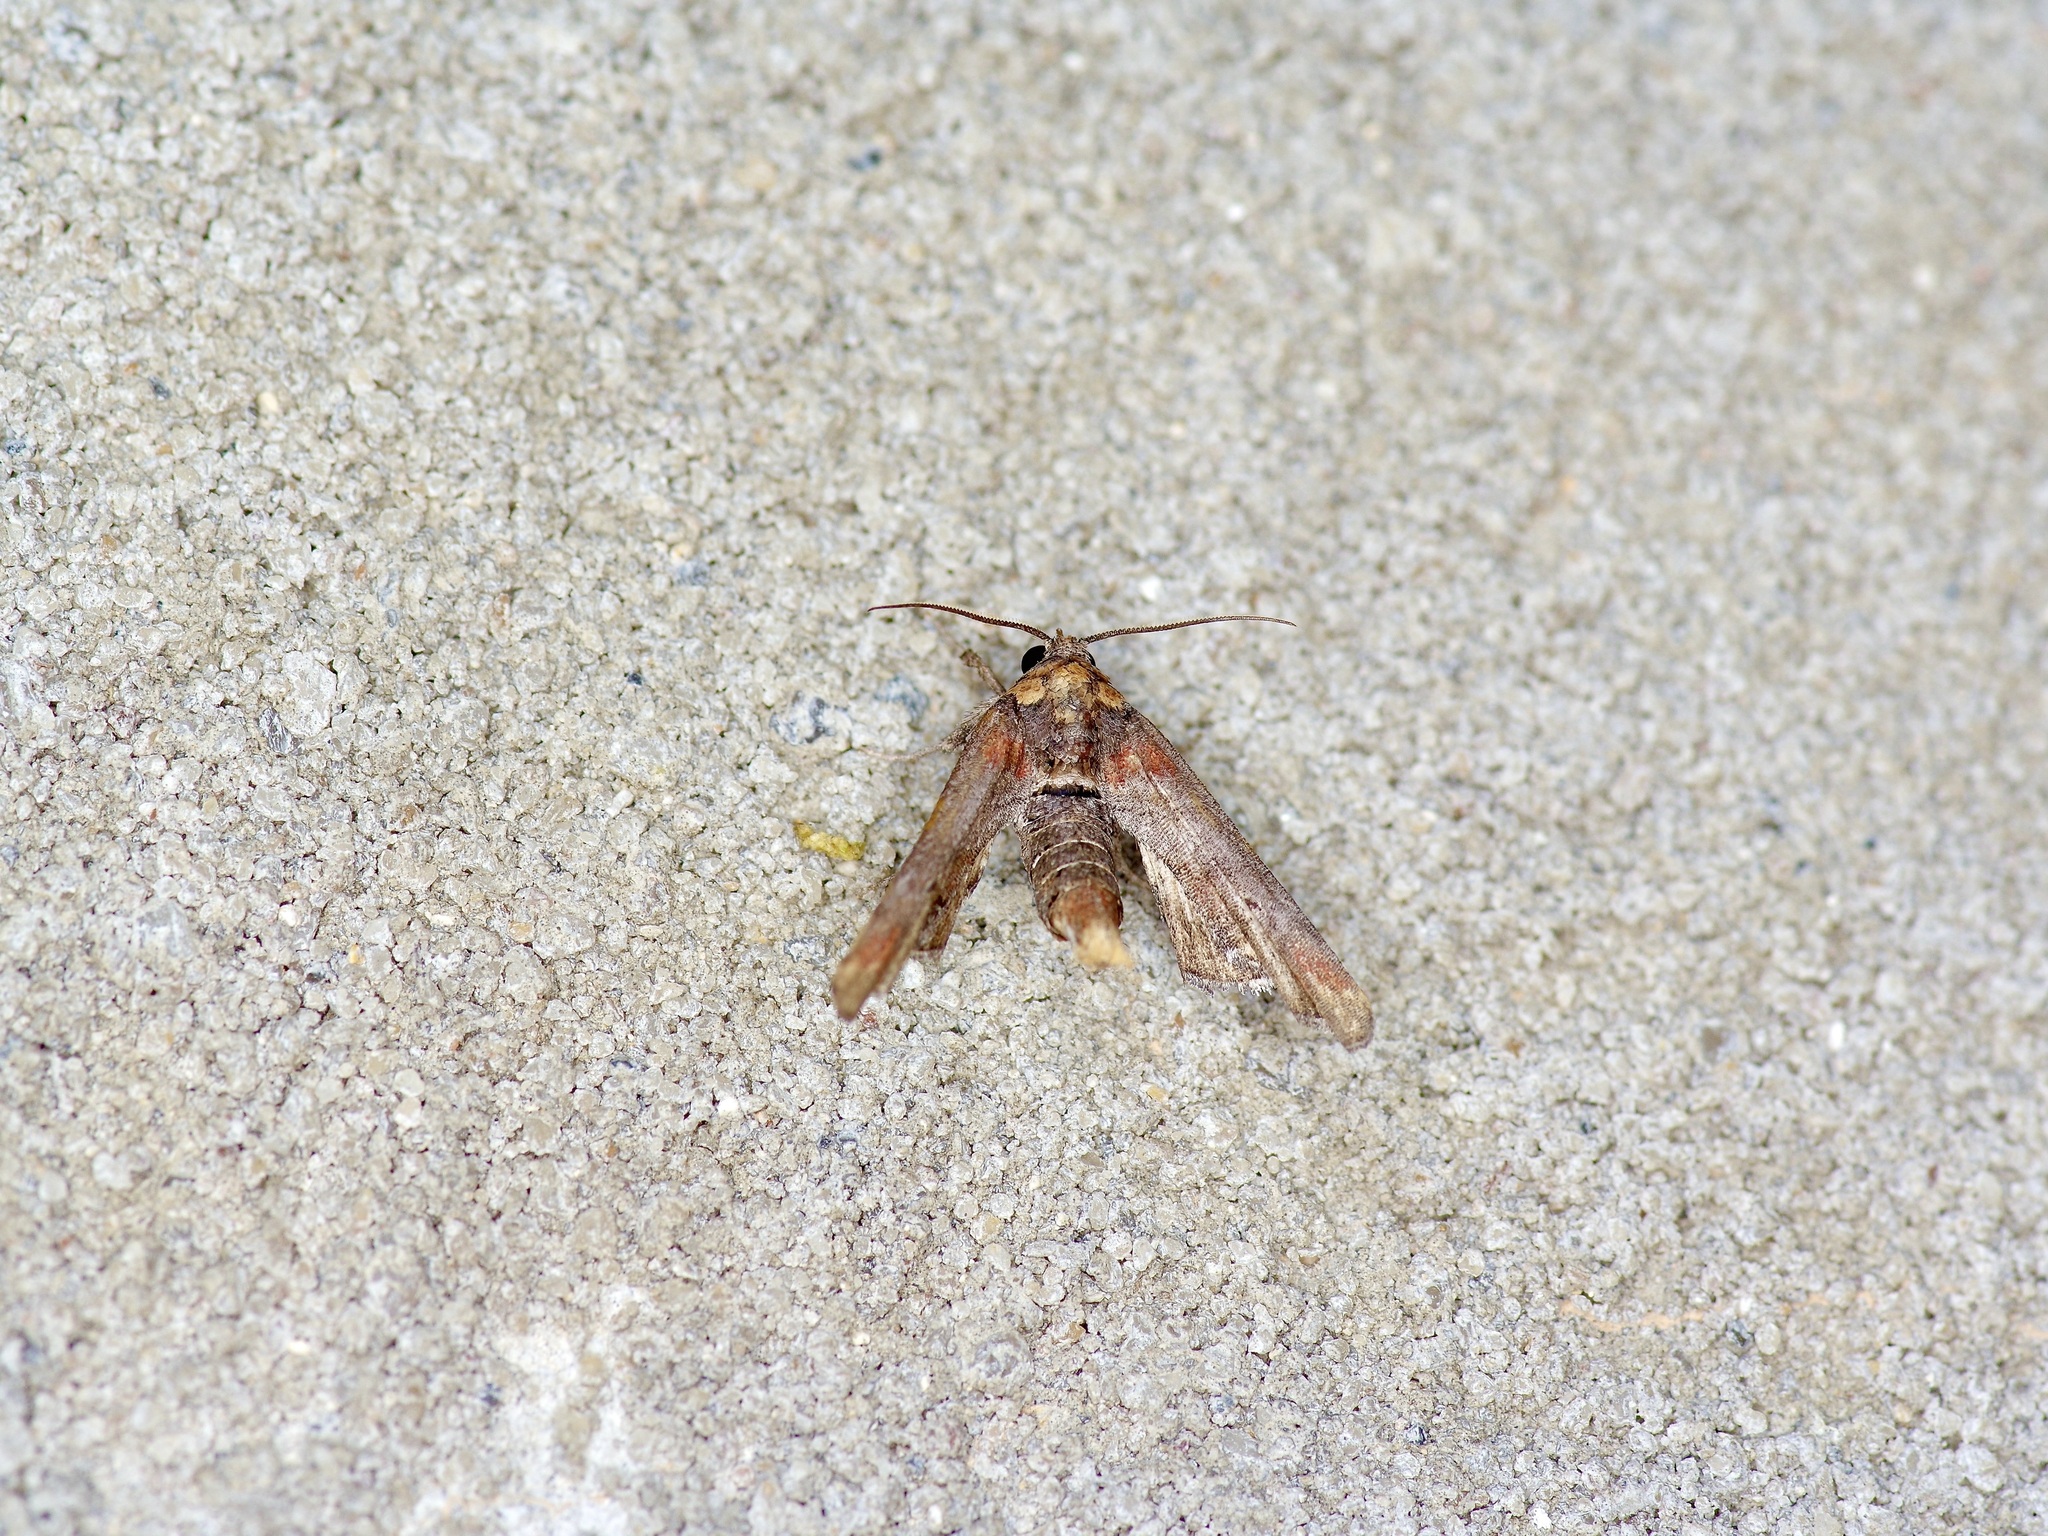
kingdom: Animalia
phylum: Arthropoda
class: Insecta
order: Lepidoptera
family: Euteliidae
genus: Marathyssa
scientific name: Marathyssa inficita
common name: Dark marathyssa moth
